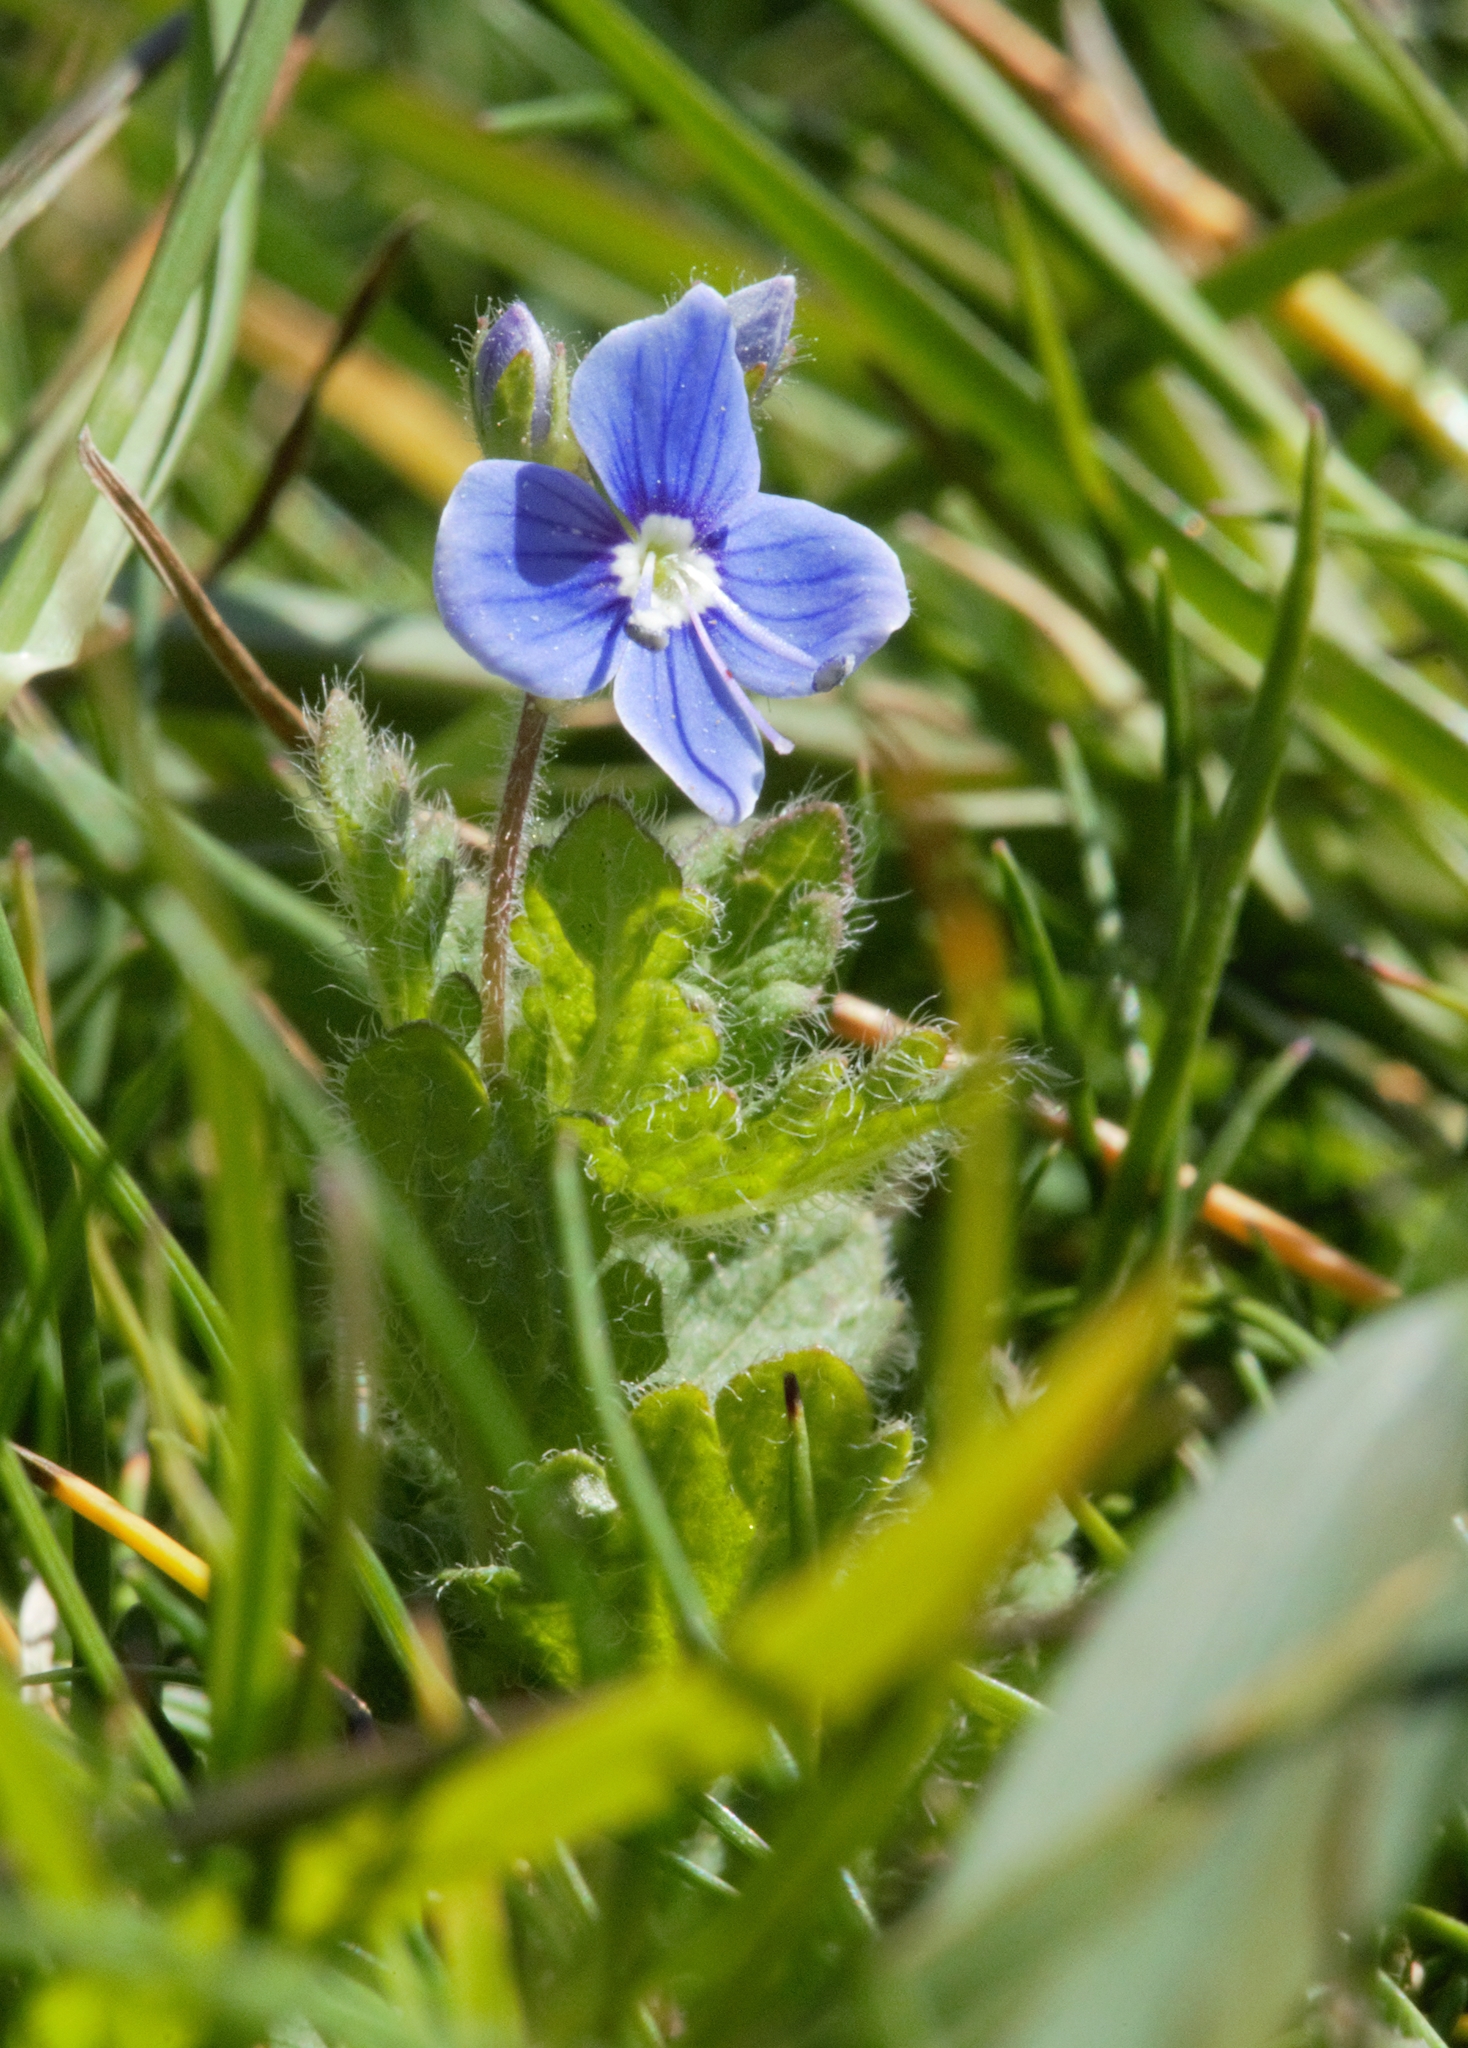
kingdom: Plantae
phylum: Tracheophyta
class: Magnoliopsida
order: Lamiales
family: Plantaginaceae
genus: Veronica
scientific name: Veronica chamaedrys
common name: Germander speedwell
